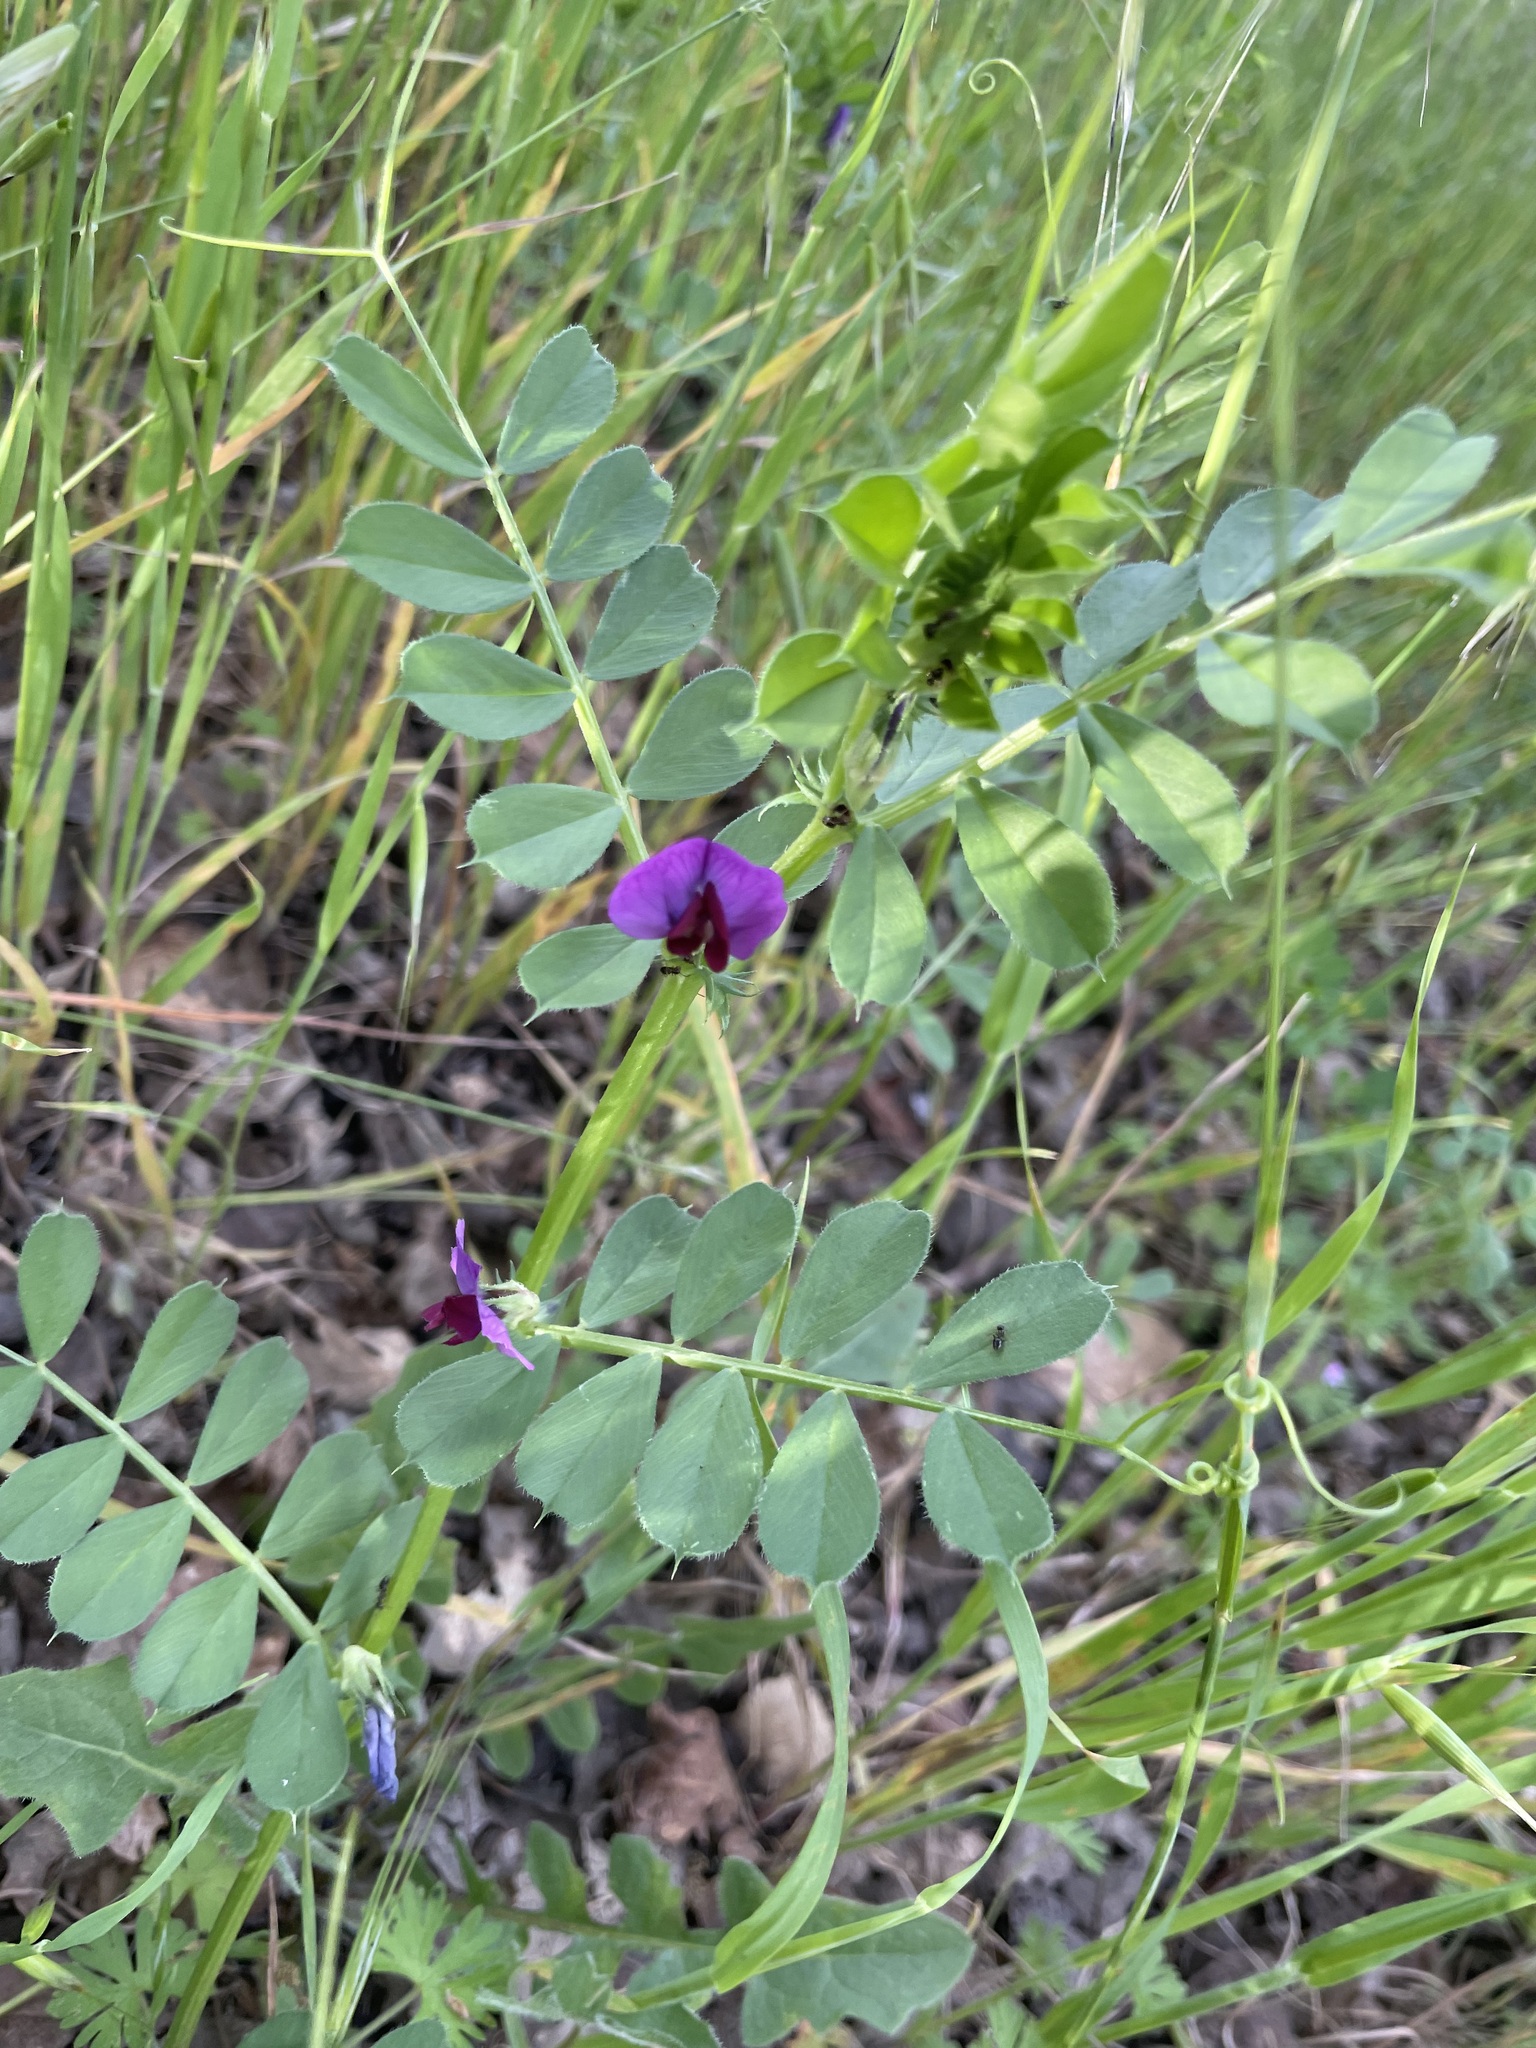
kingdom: Plantae
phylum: Tracheophyta
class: Magnoliopsida
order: Fabales
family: Fabaceae
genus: Vicia
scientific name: Vicia sativa
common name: Garden vetch
